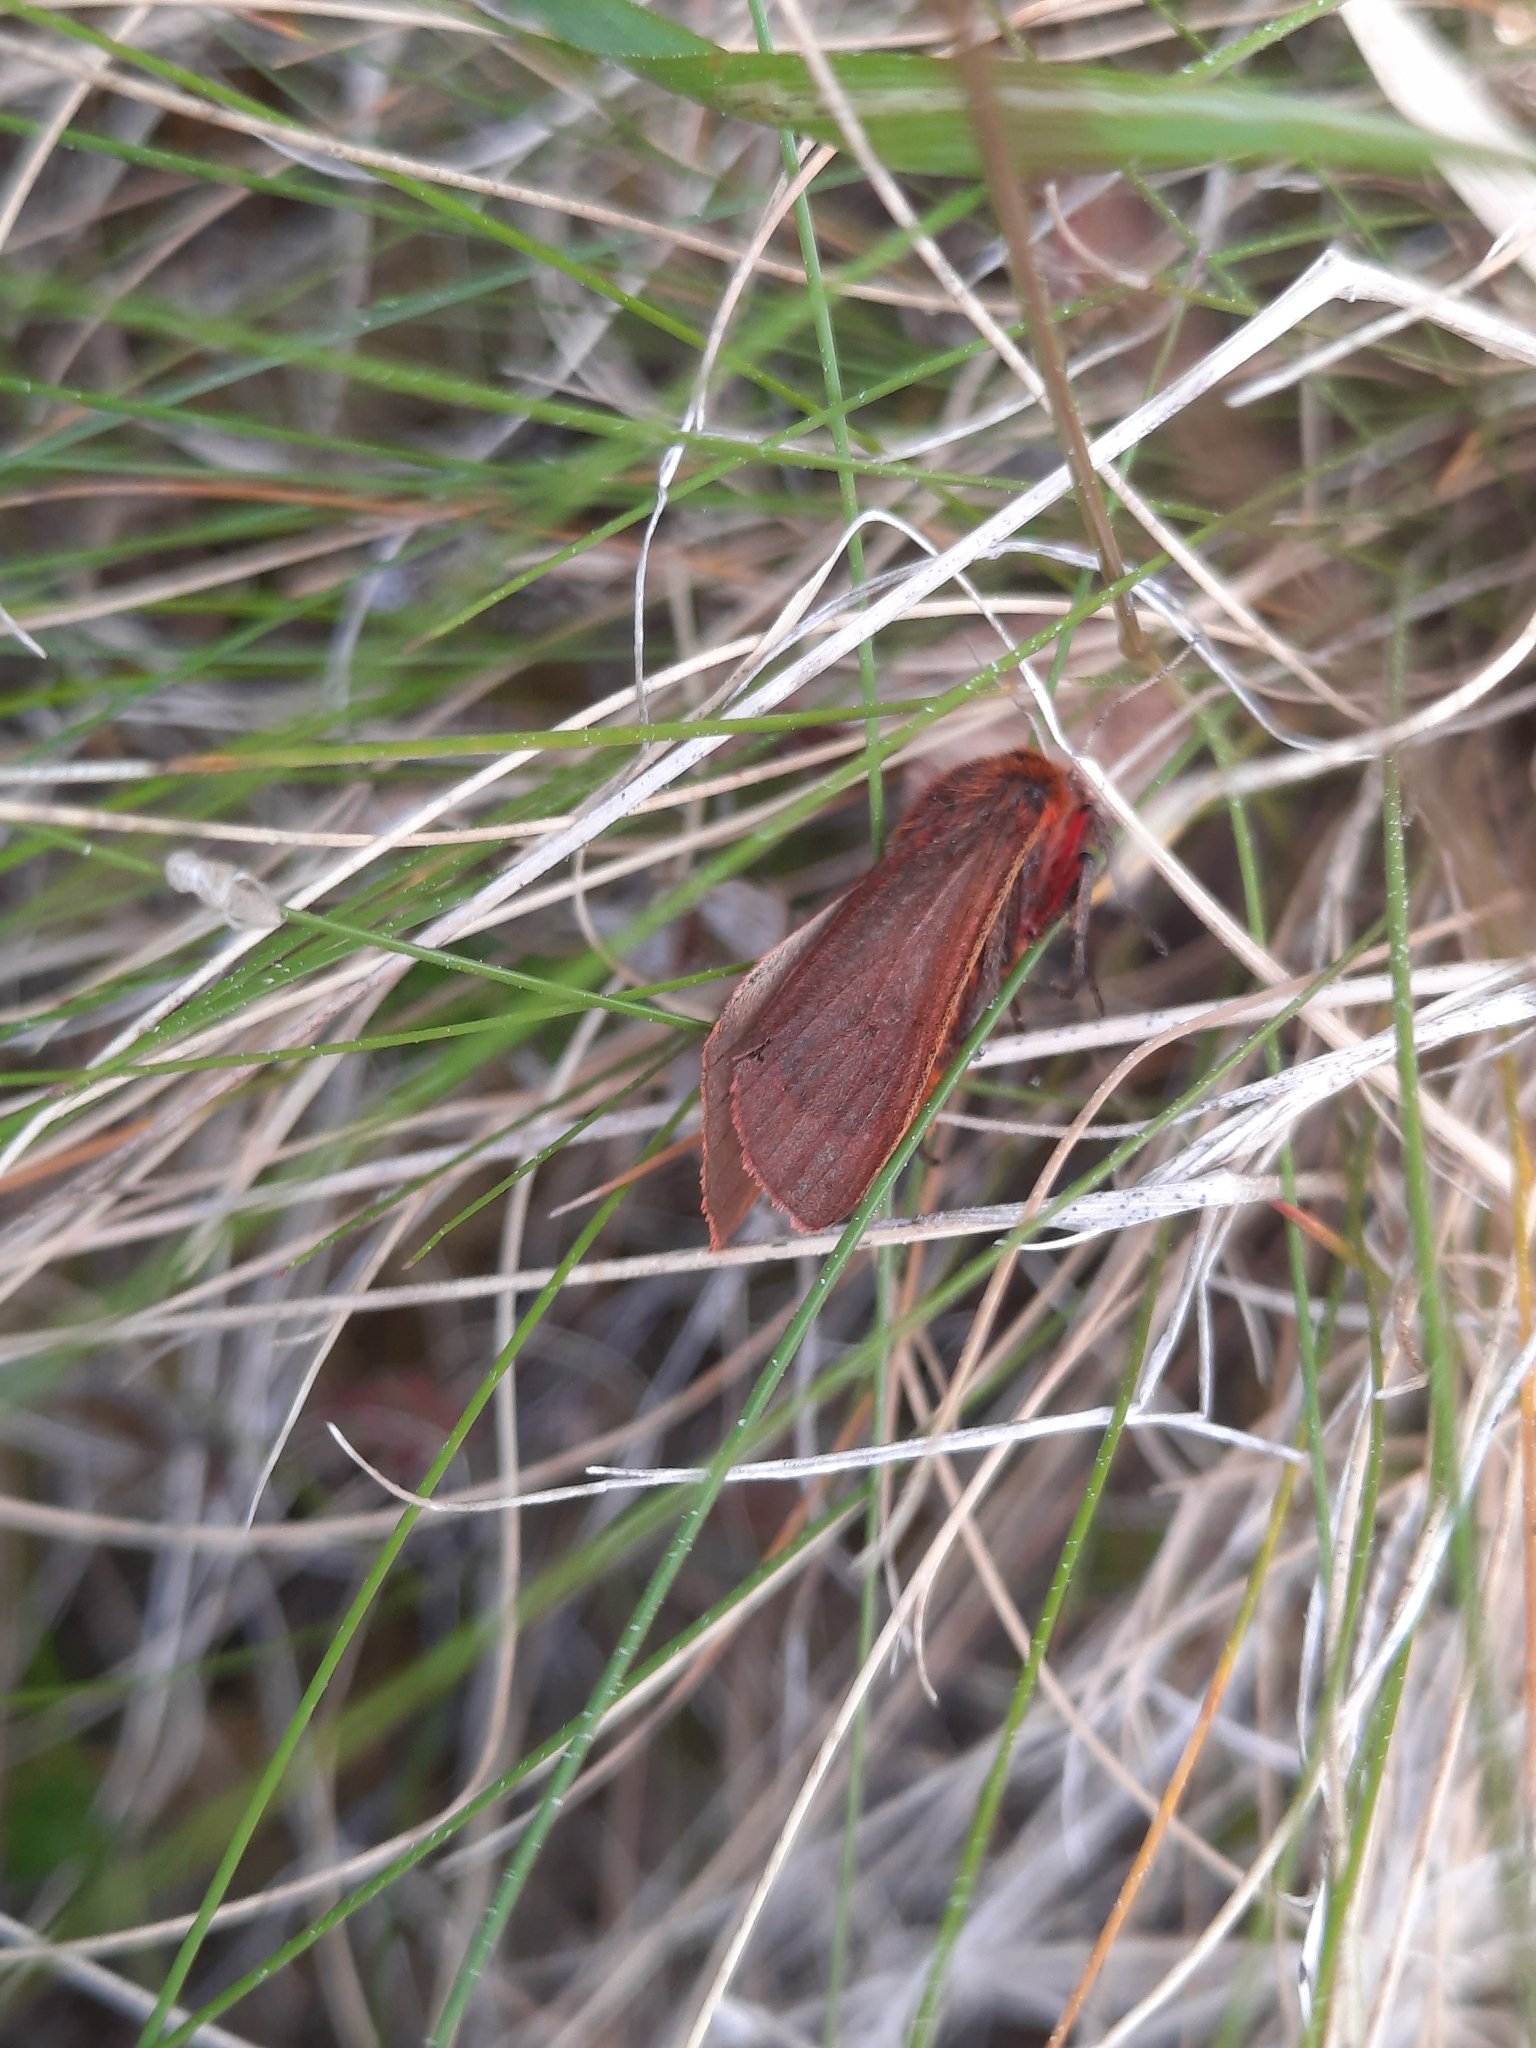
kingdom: Animalia
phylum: Arthropoda
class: Insecta
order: Lepidoptera
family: Erebidae
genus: Phragmatobia
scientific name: Phragmatobia fuliginosa
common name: Ruby tiger
